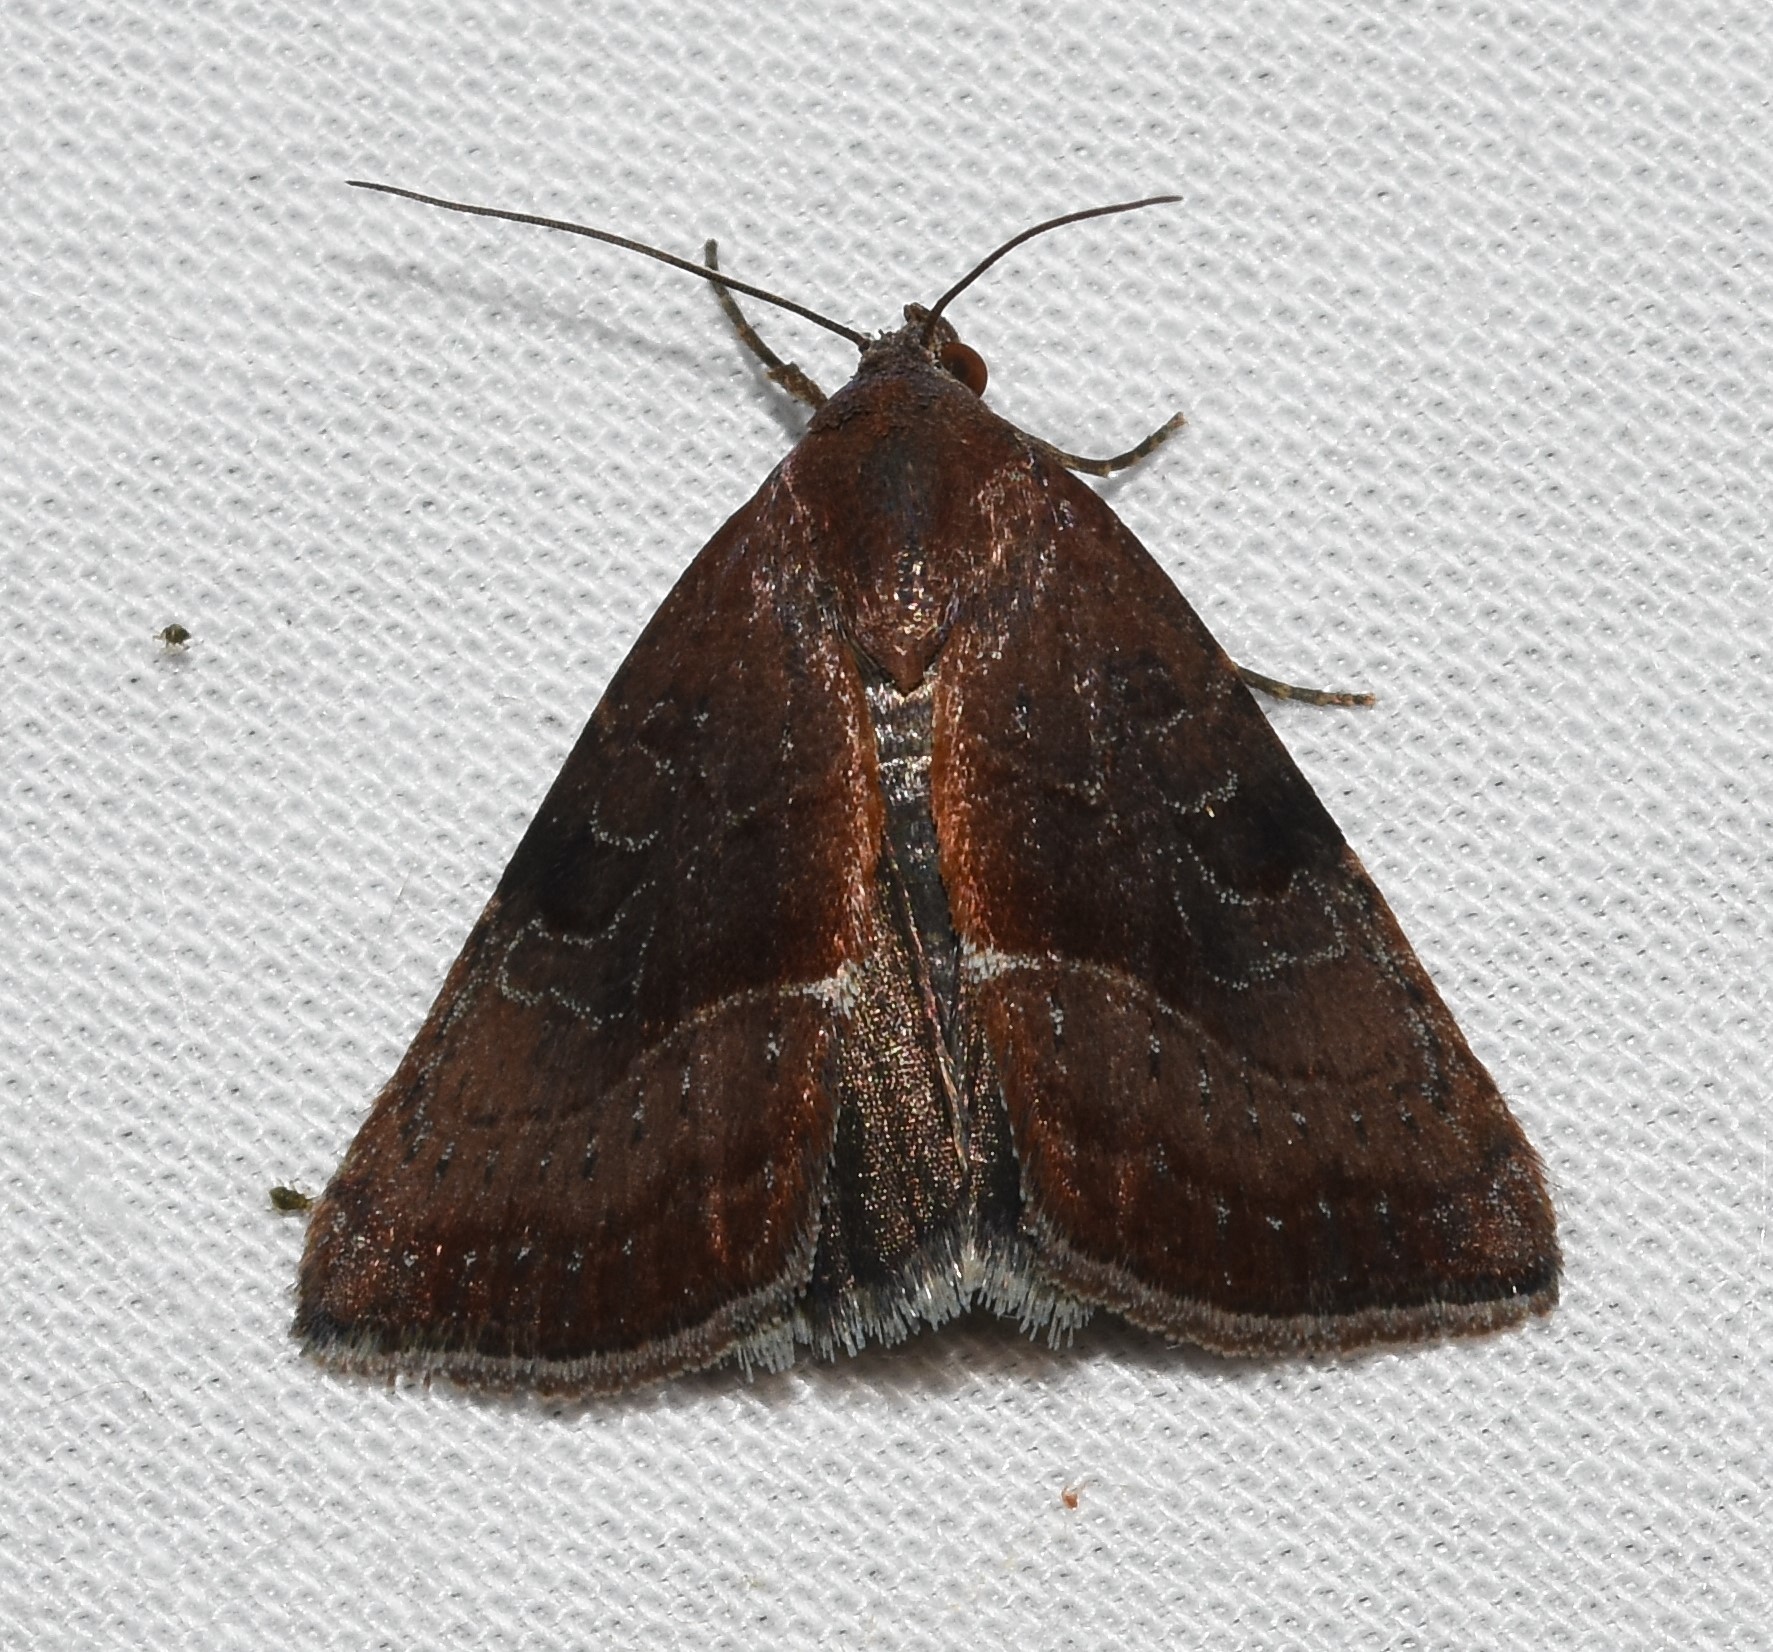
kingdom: Animalia
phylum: Arthropoda
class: Insecta
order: Lepidoptera
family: Noctuidae
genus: Galgula
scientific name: Galgula partita
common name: Wedgeling
